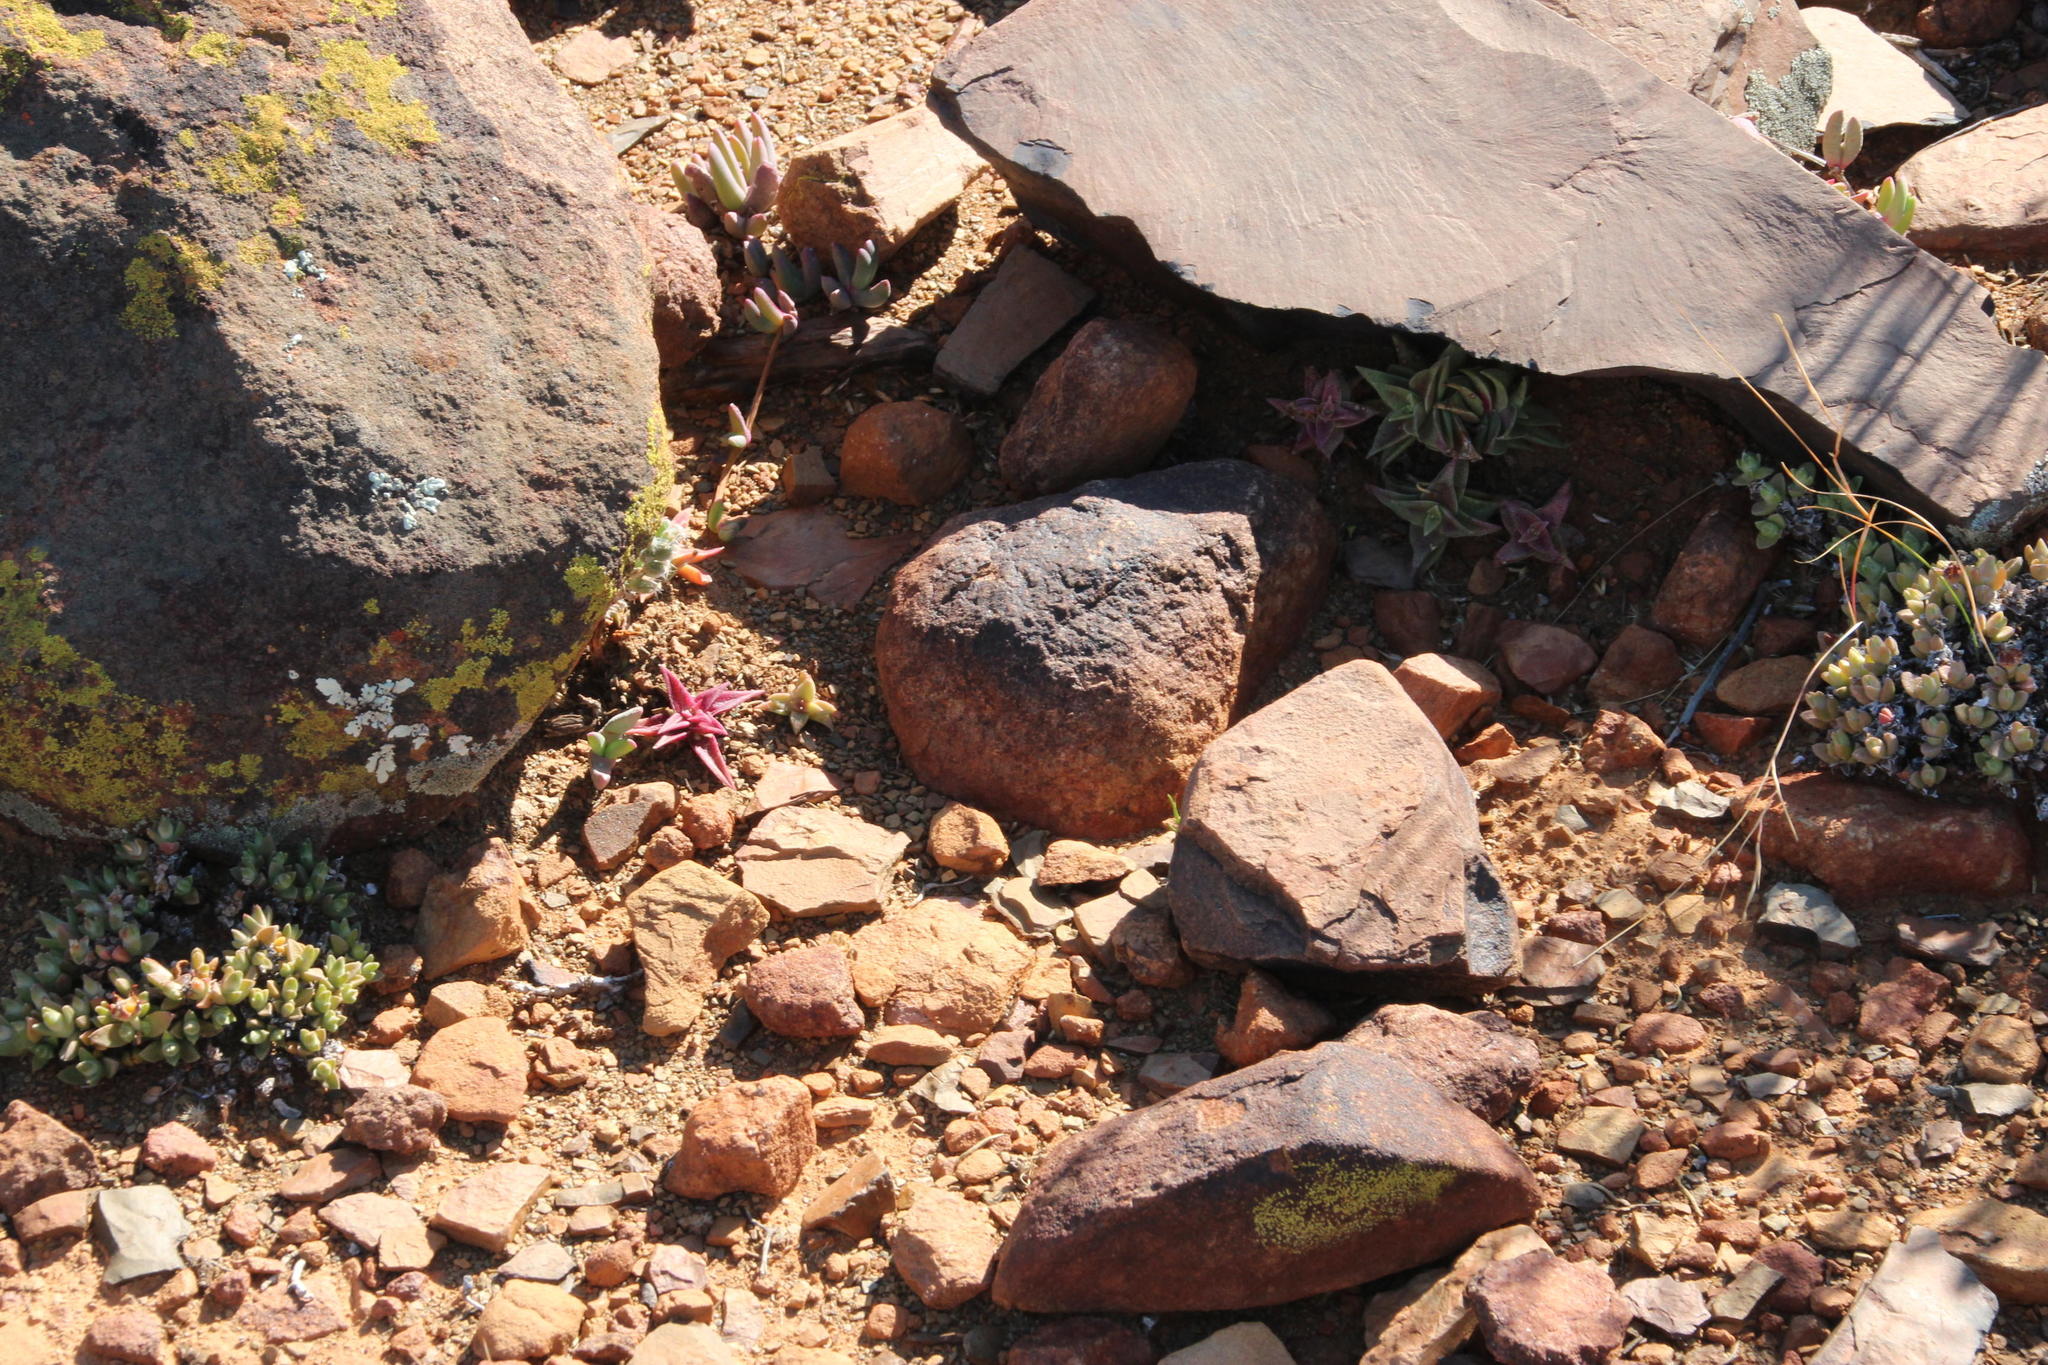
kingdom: Plantae
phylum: Tracheophyta
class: Magnoliopsida
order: Saxifragales
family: Crassulaceae
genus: Crassula
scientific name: Crassula capitella
